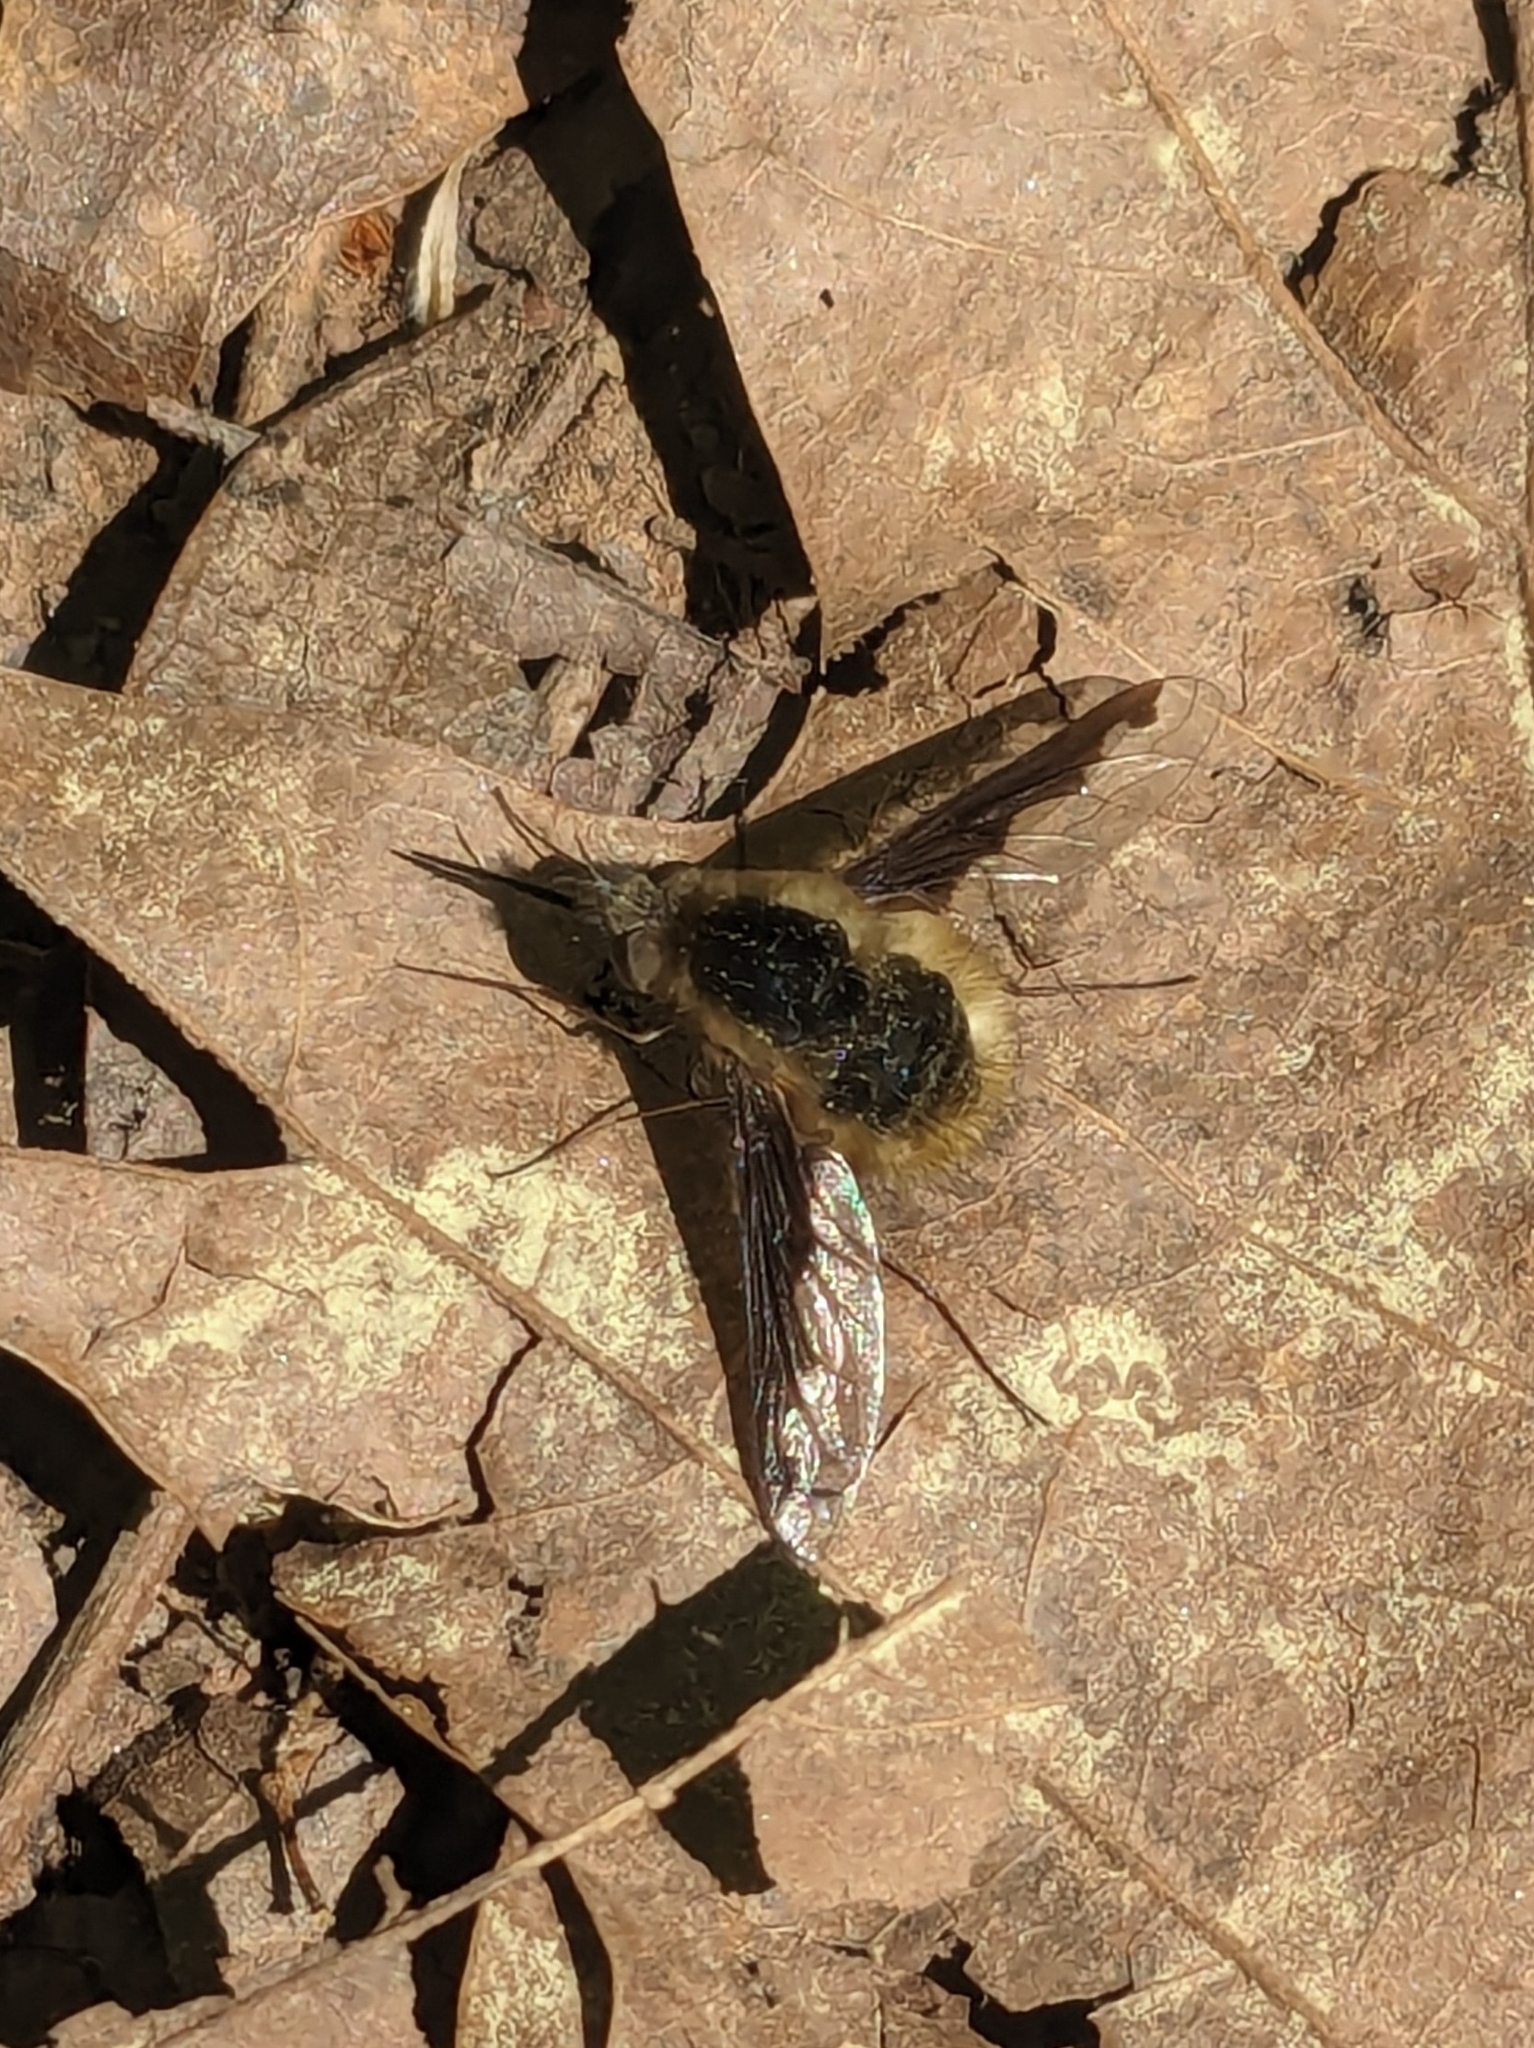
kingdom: Animalia
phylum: Arthropoda
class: Insecta
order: Diptera
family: Bombyliidae
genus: Bombylius
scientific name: Bombylius major
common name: Bee fly
